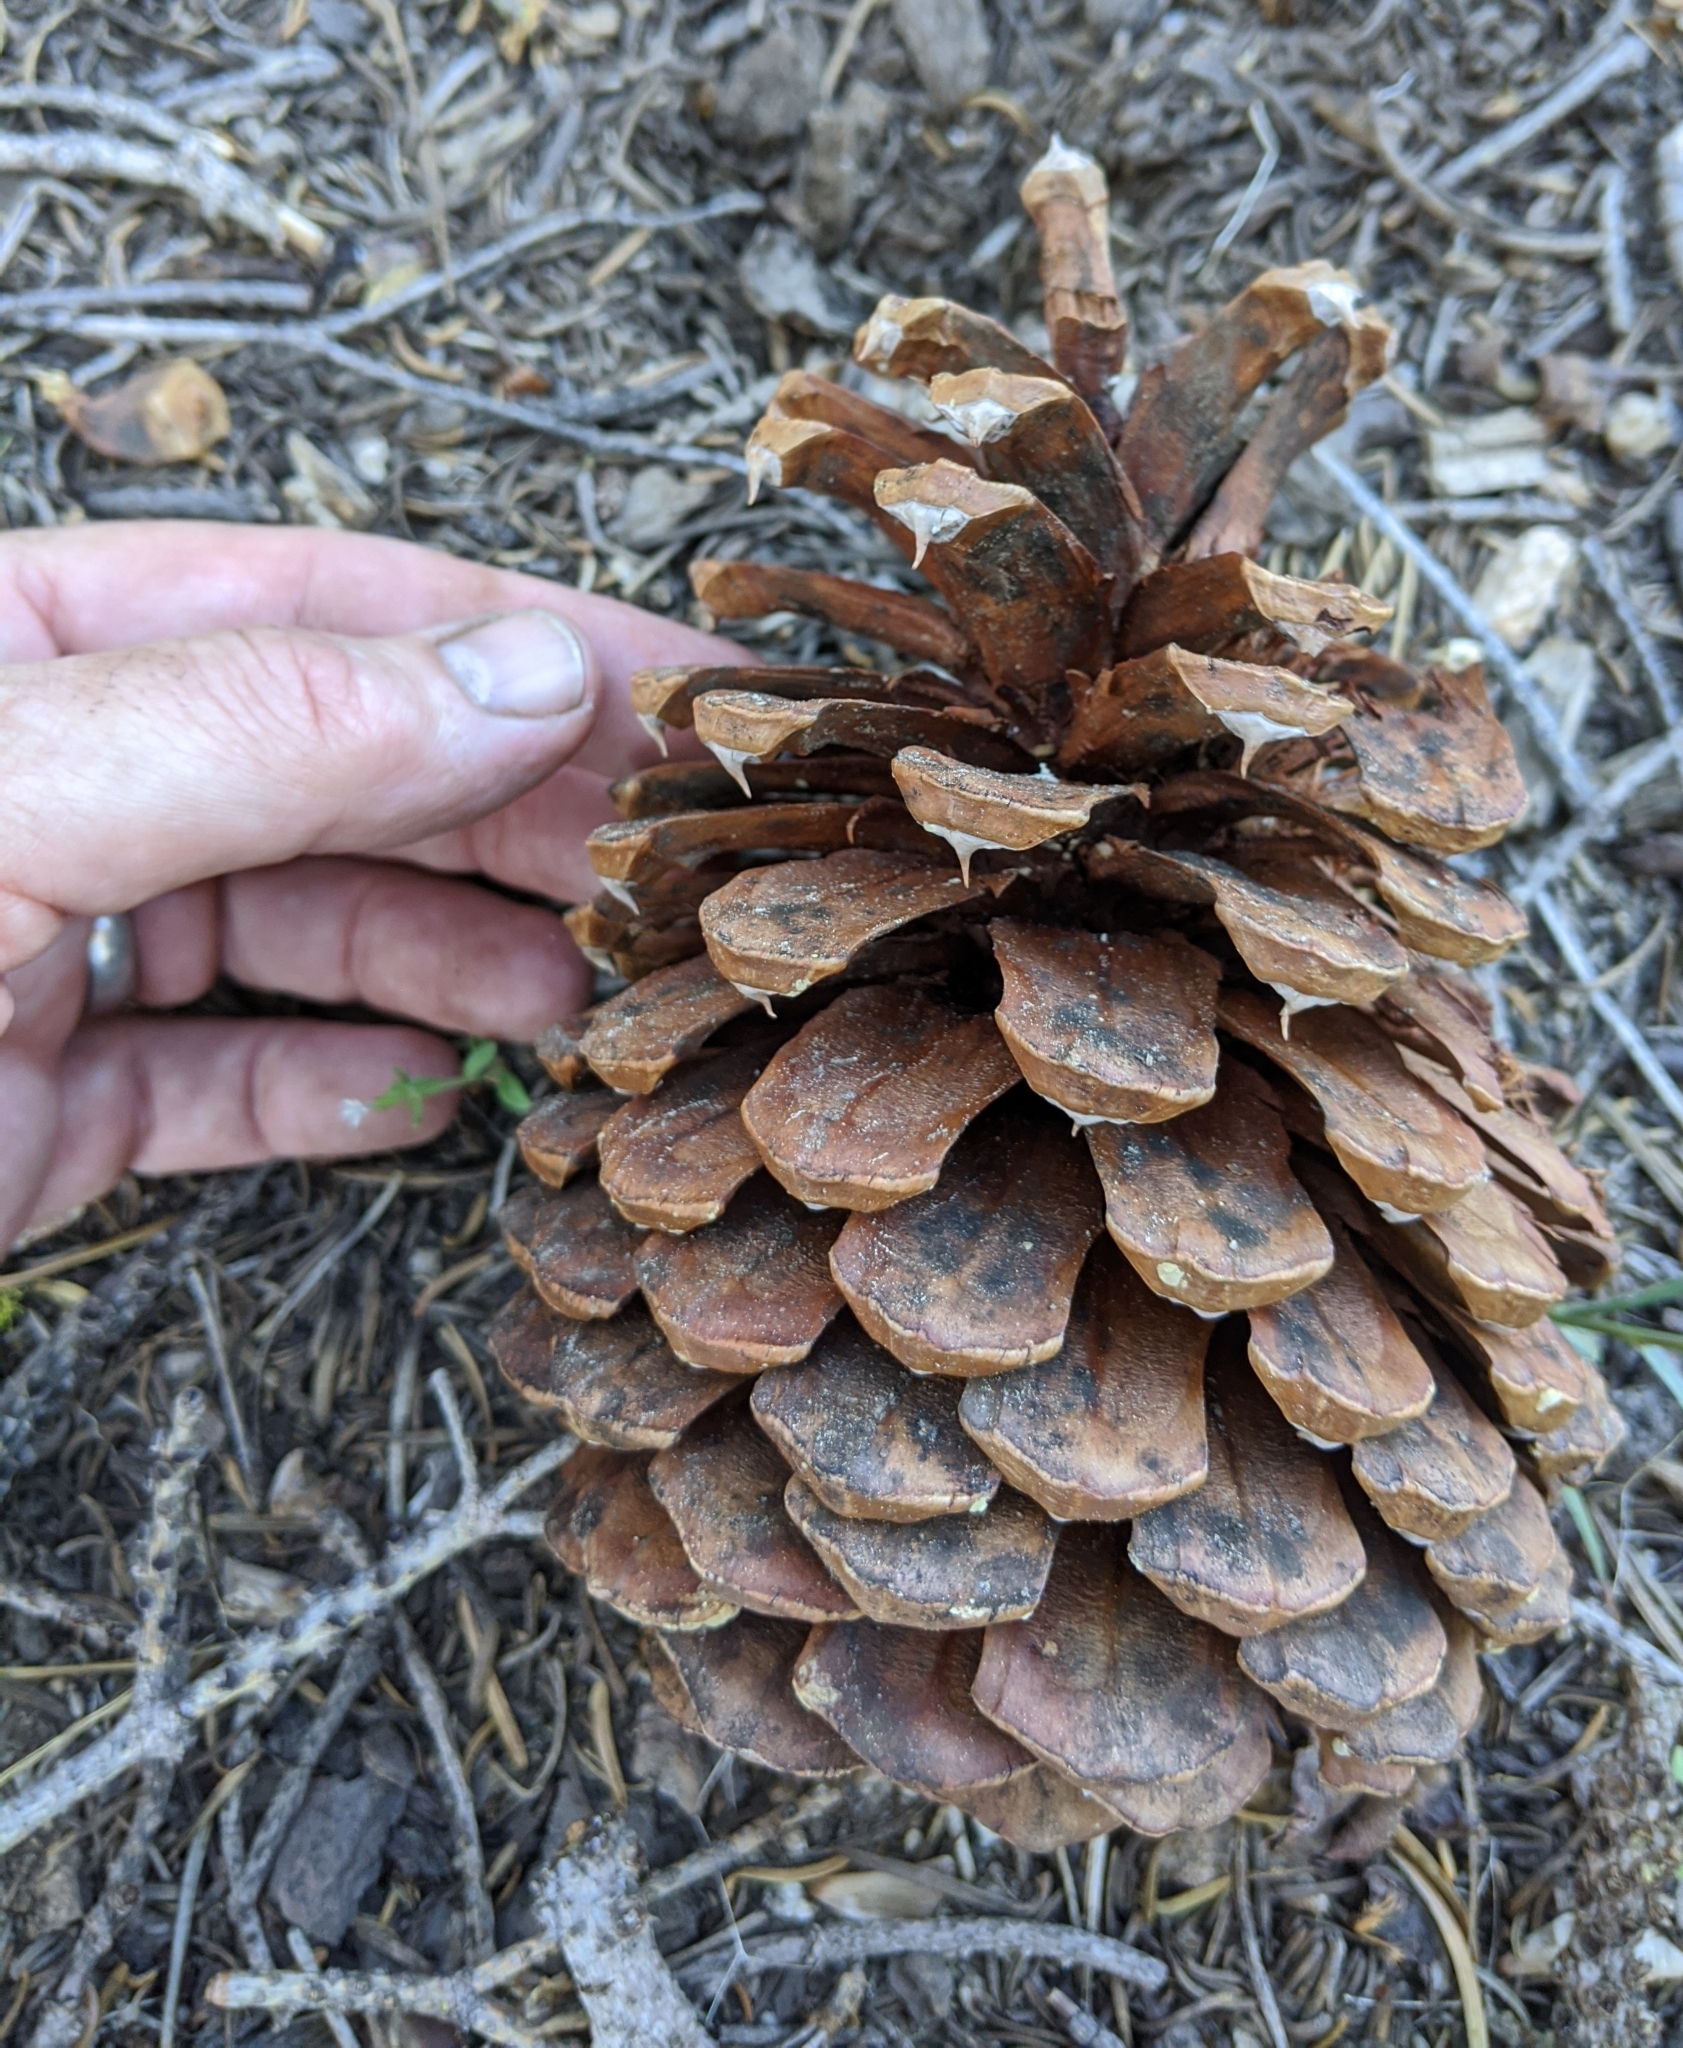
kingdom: Plantae
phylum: Tracheophyta
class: Pinopsida
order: Pinales
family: Pinaceae
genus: Pinus
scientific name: Pinus jeffreyi
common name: Jeffrey pine
